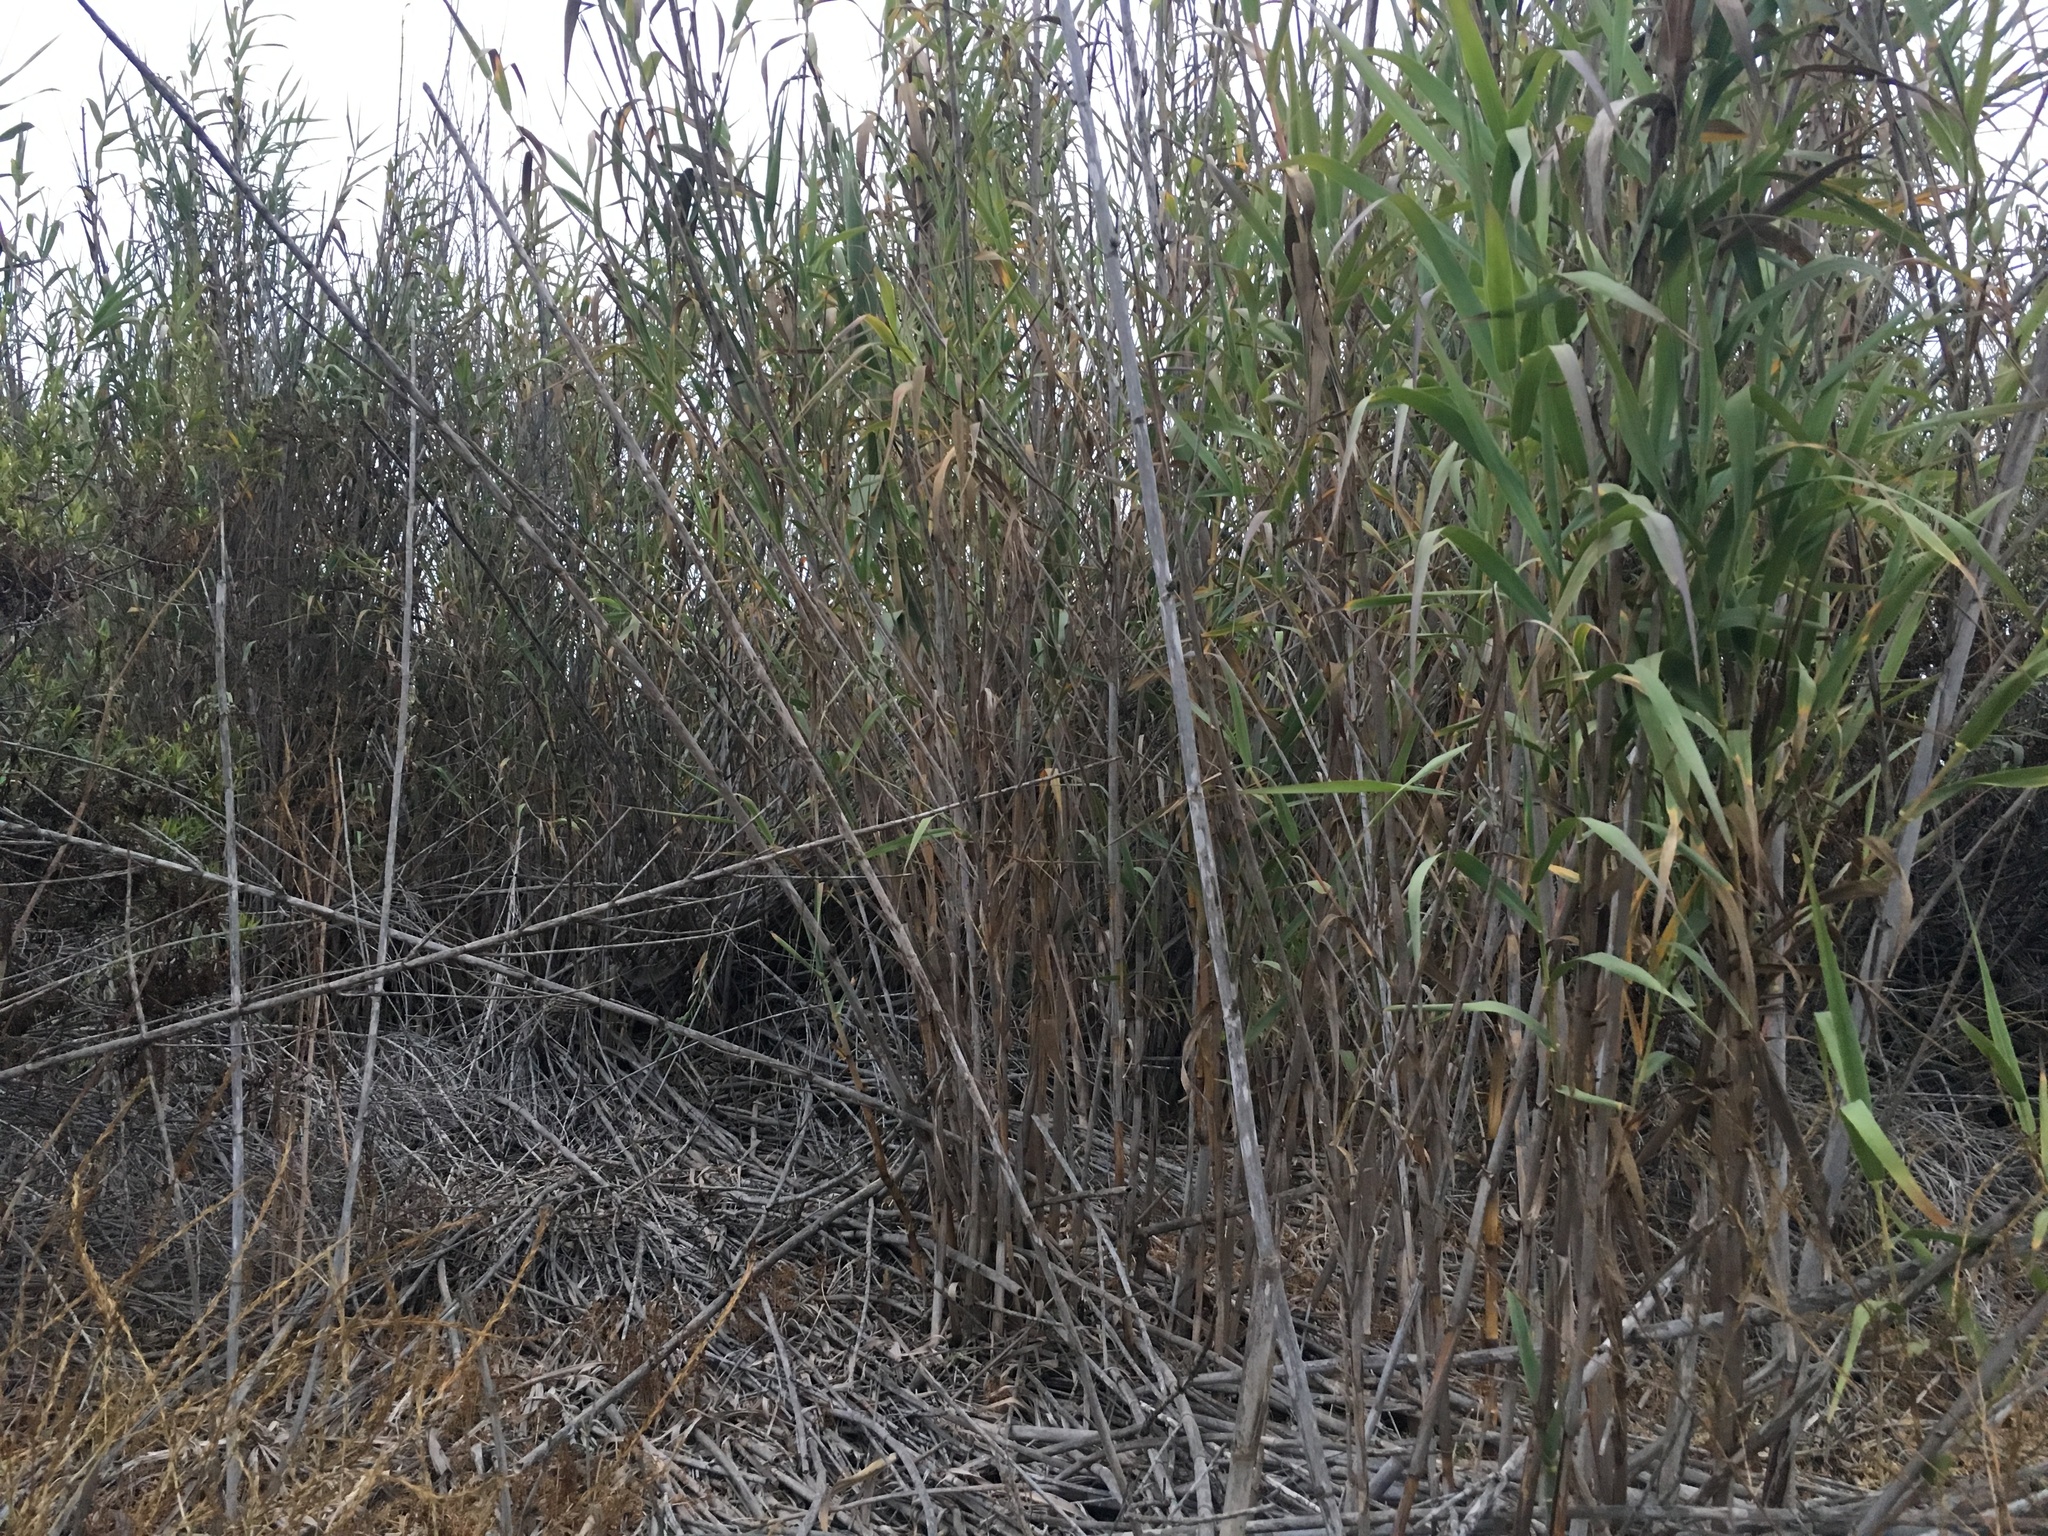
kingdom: Plantae
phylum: Tracheophyta
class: Liliopsida
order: Poales
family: Poaceae
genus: Arundo
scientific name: Arundo donax
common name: Giant reed
